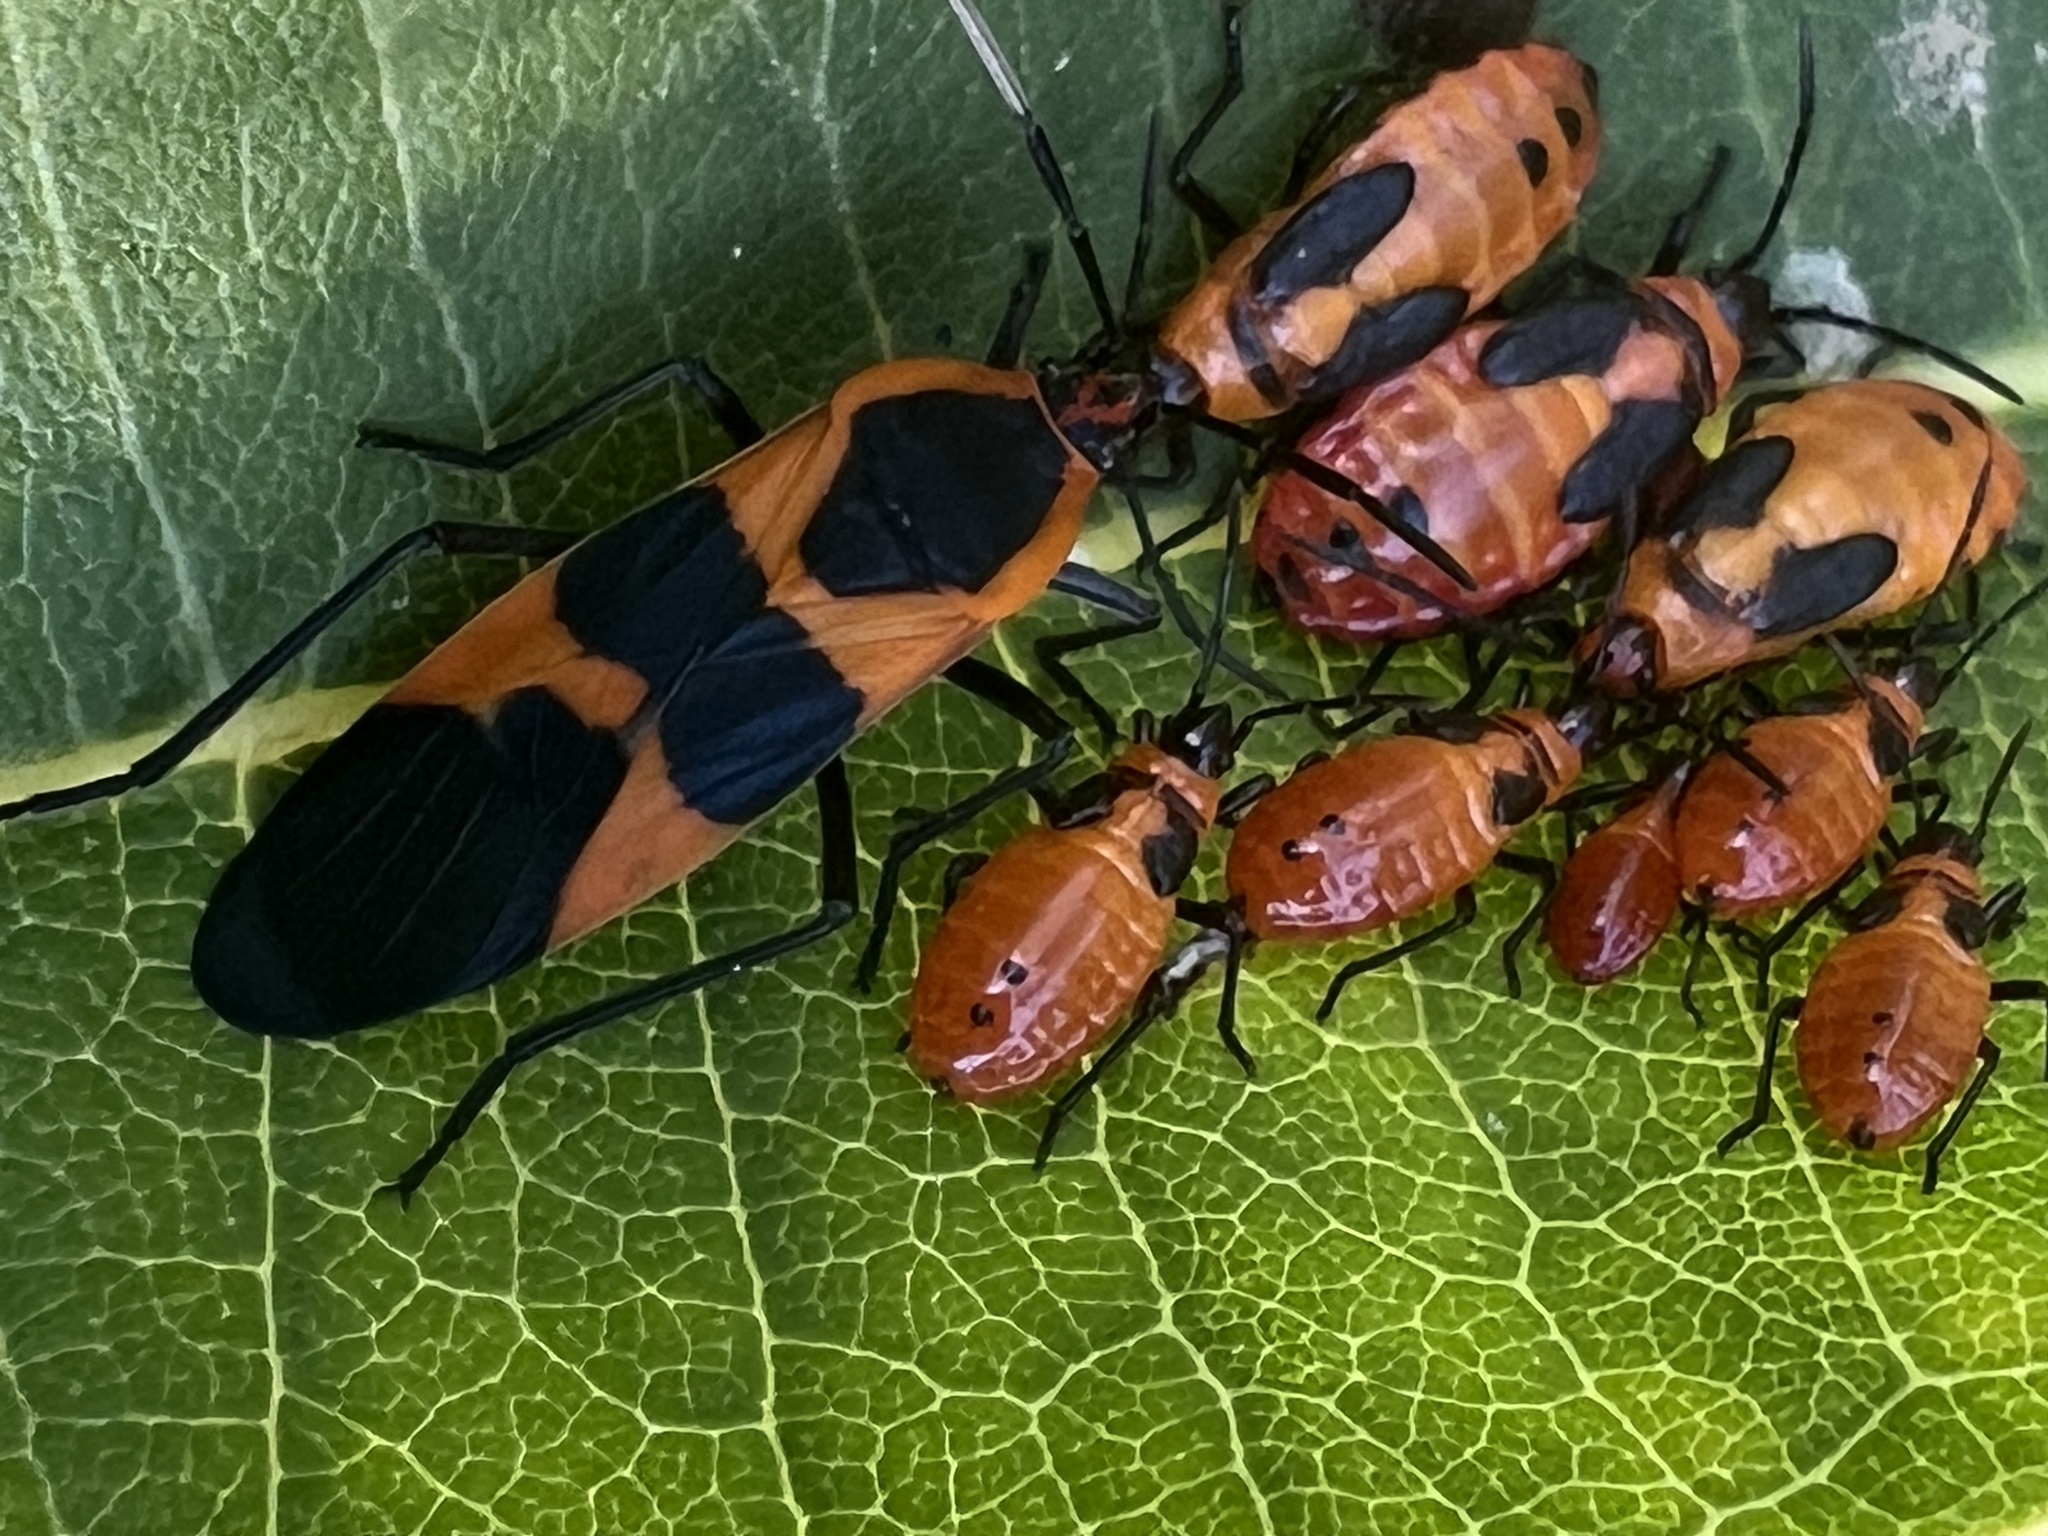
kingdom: Animalia
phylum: Arthropoda
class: Insecta
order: Hemiptera
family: Lygaeidae
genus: Oncopeltus
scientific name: Oncopeltus fasciatus
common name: Large milkweed bug
